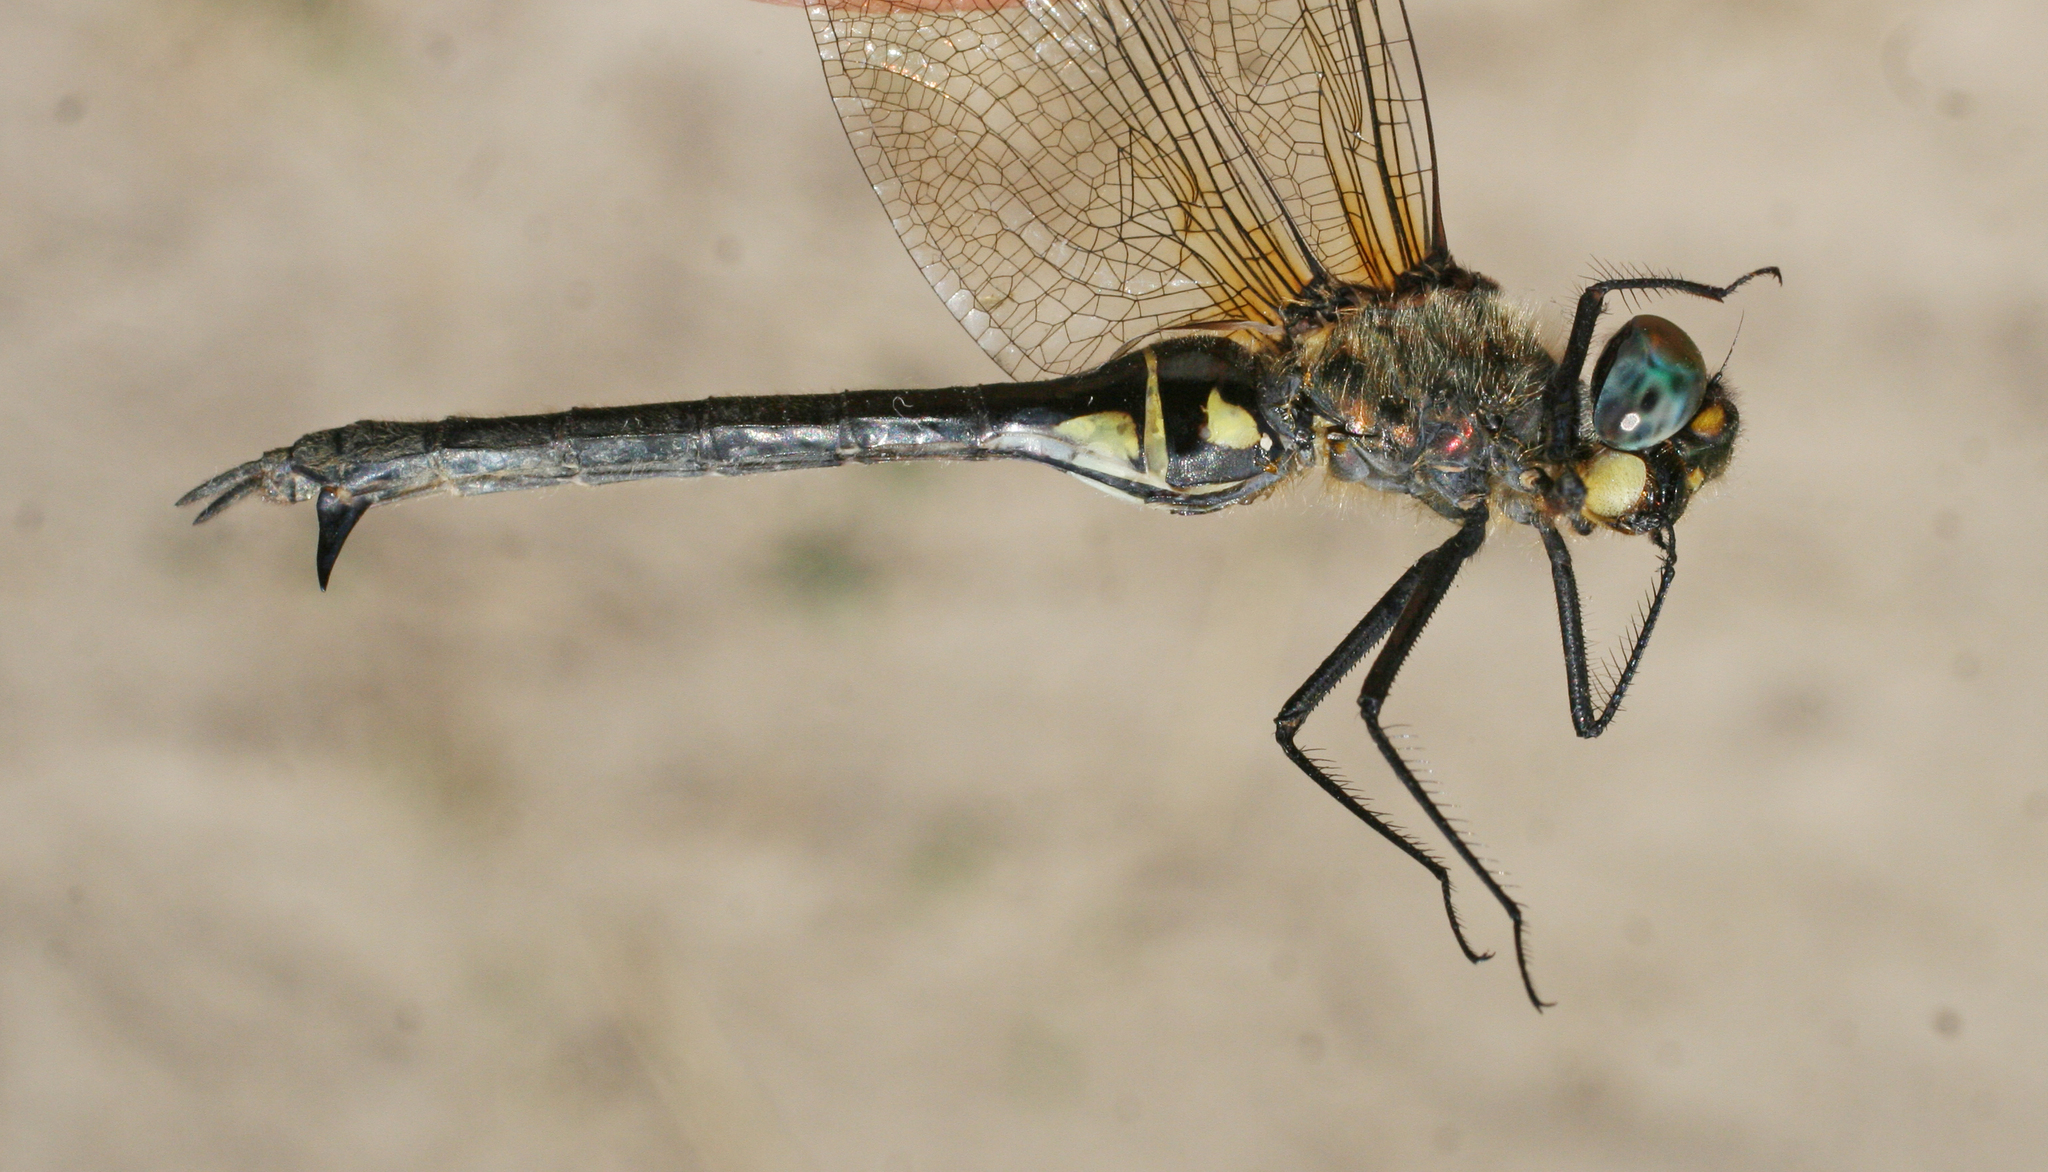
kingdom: Animalia
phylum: Arthropoda
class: Insecta
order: Odonata
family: Corduliidae
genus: Somatochlora
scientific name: Somatochlora exuberata
